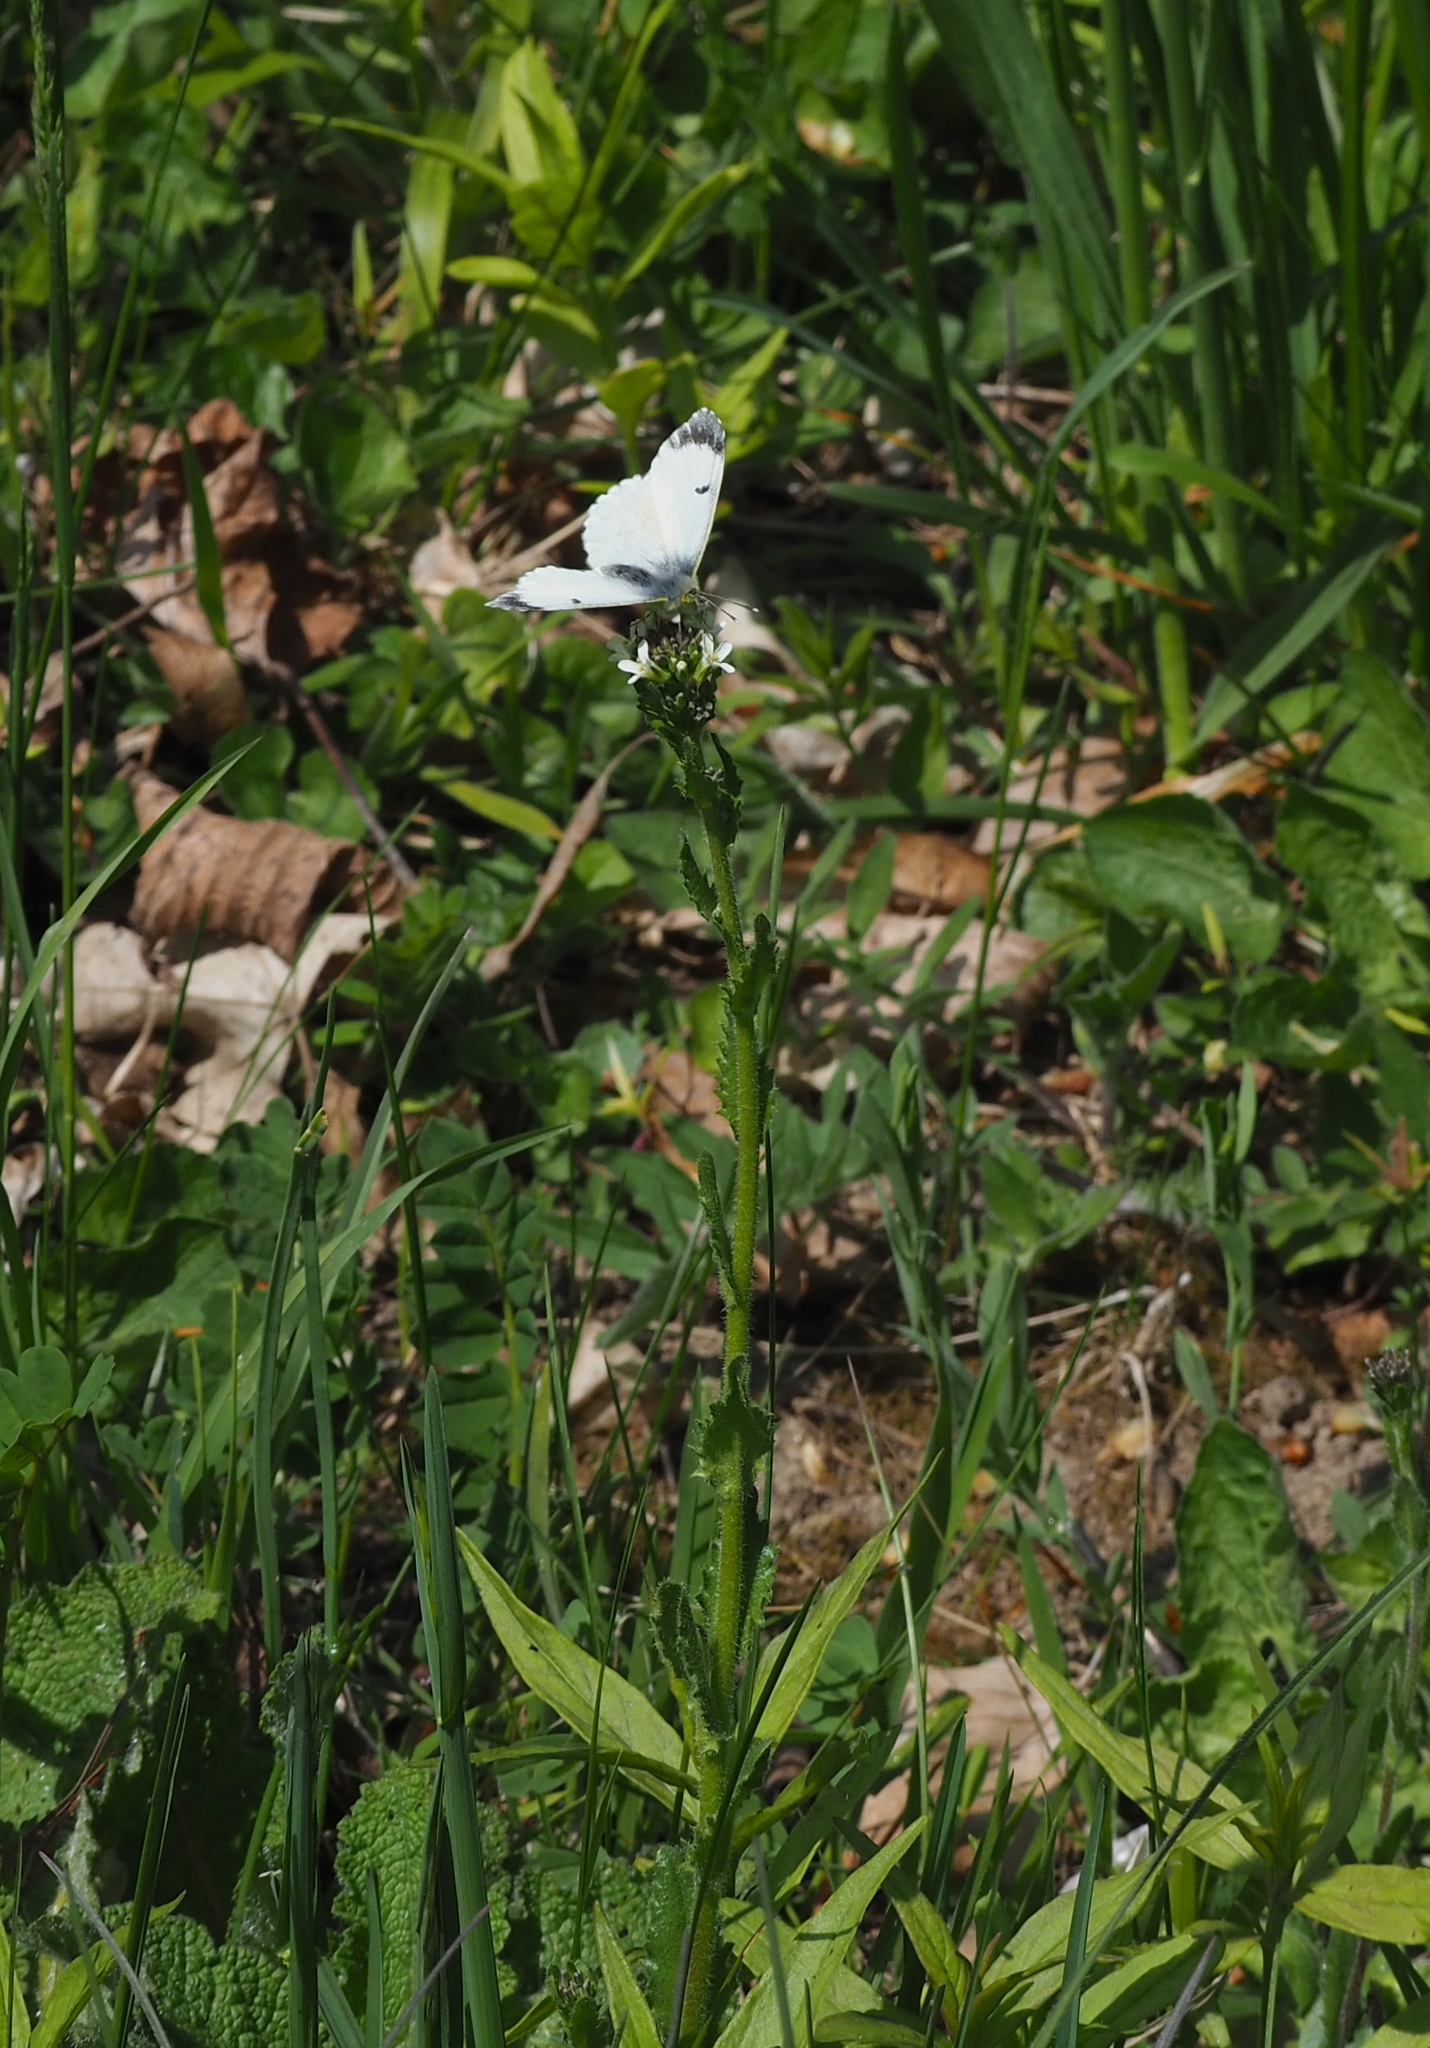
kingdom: Plantae
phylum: Tracheophyta
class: Magnoliopsida
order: Brassicales
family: Brassicaceae
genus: Arabis
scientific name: Arabis hirsuta
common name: Hairy rock-cress
